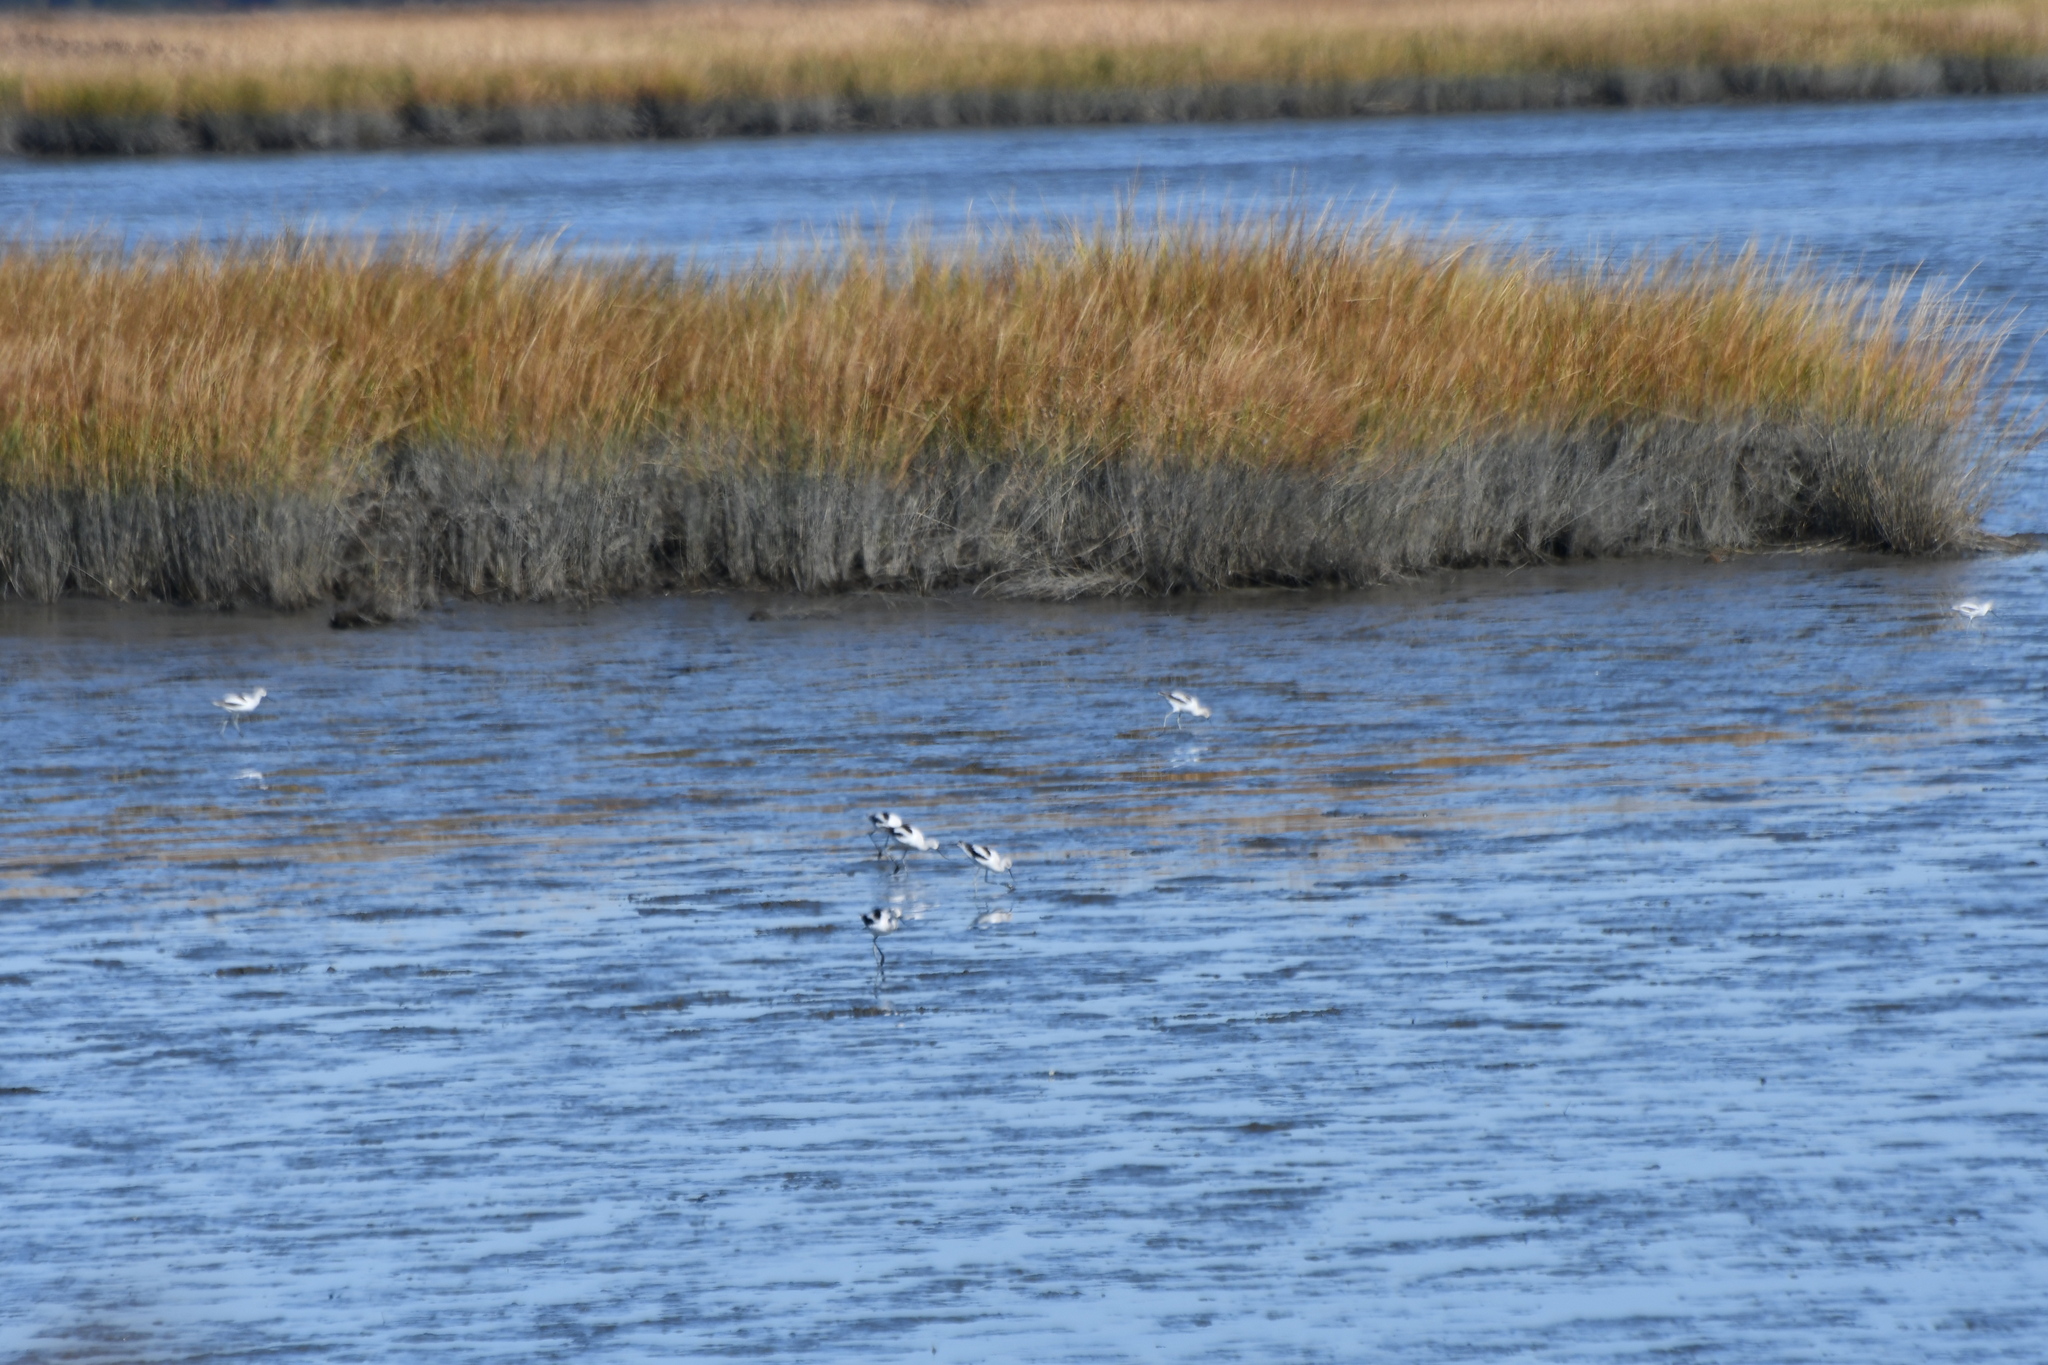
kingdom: Animalia
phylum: Chordata
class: Aves
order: Charadriiformes
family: Recurvirostridae
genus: Recurvirostra
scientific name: Recurvirostra americana
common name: American avocet
